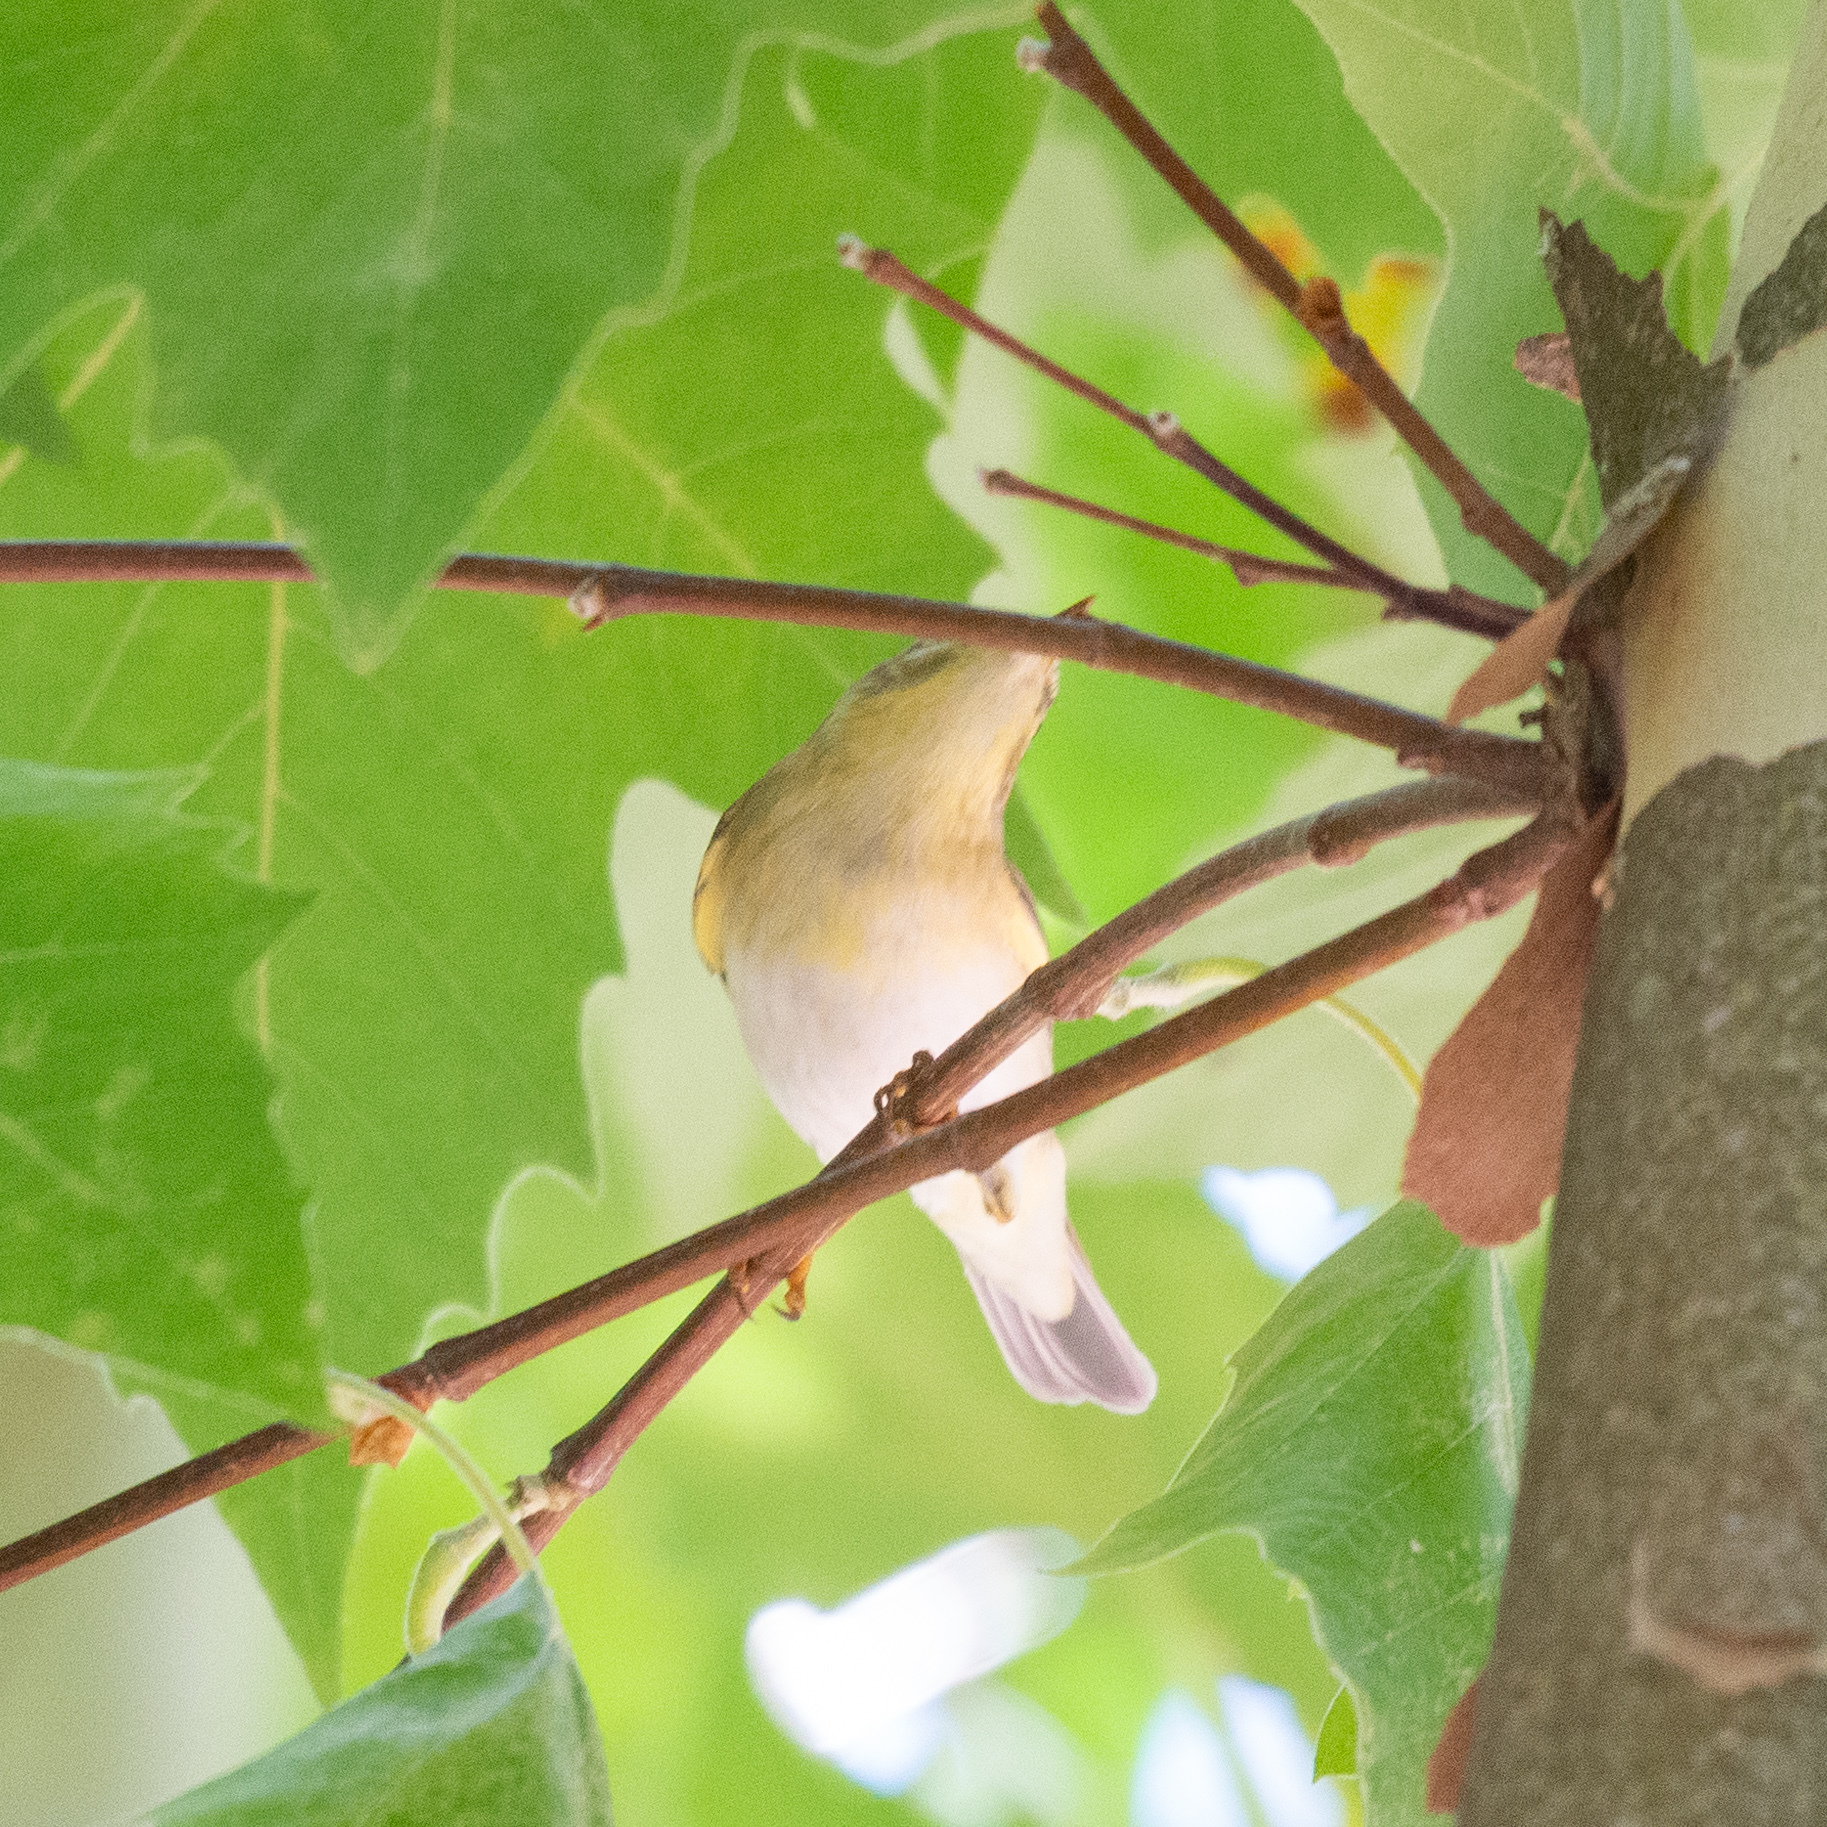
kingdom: Animalia
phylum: Chordata
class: Aves
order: Passeriformes
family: Phylloscopidae
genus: Phylloscopus
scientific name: Phylloscopus trochilus
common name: Willow warbler
